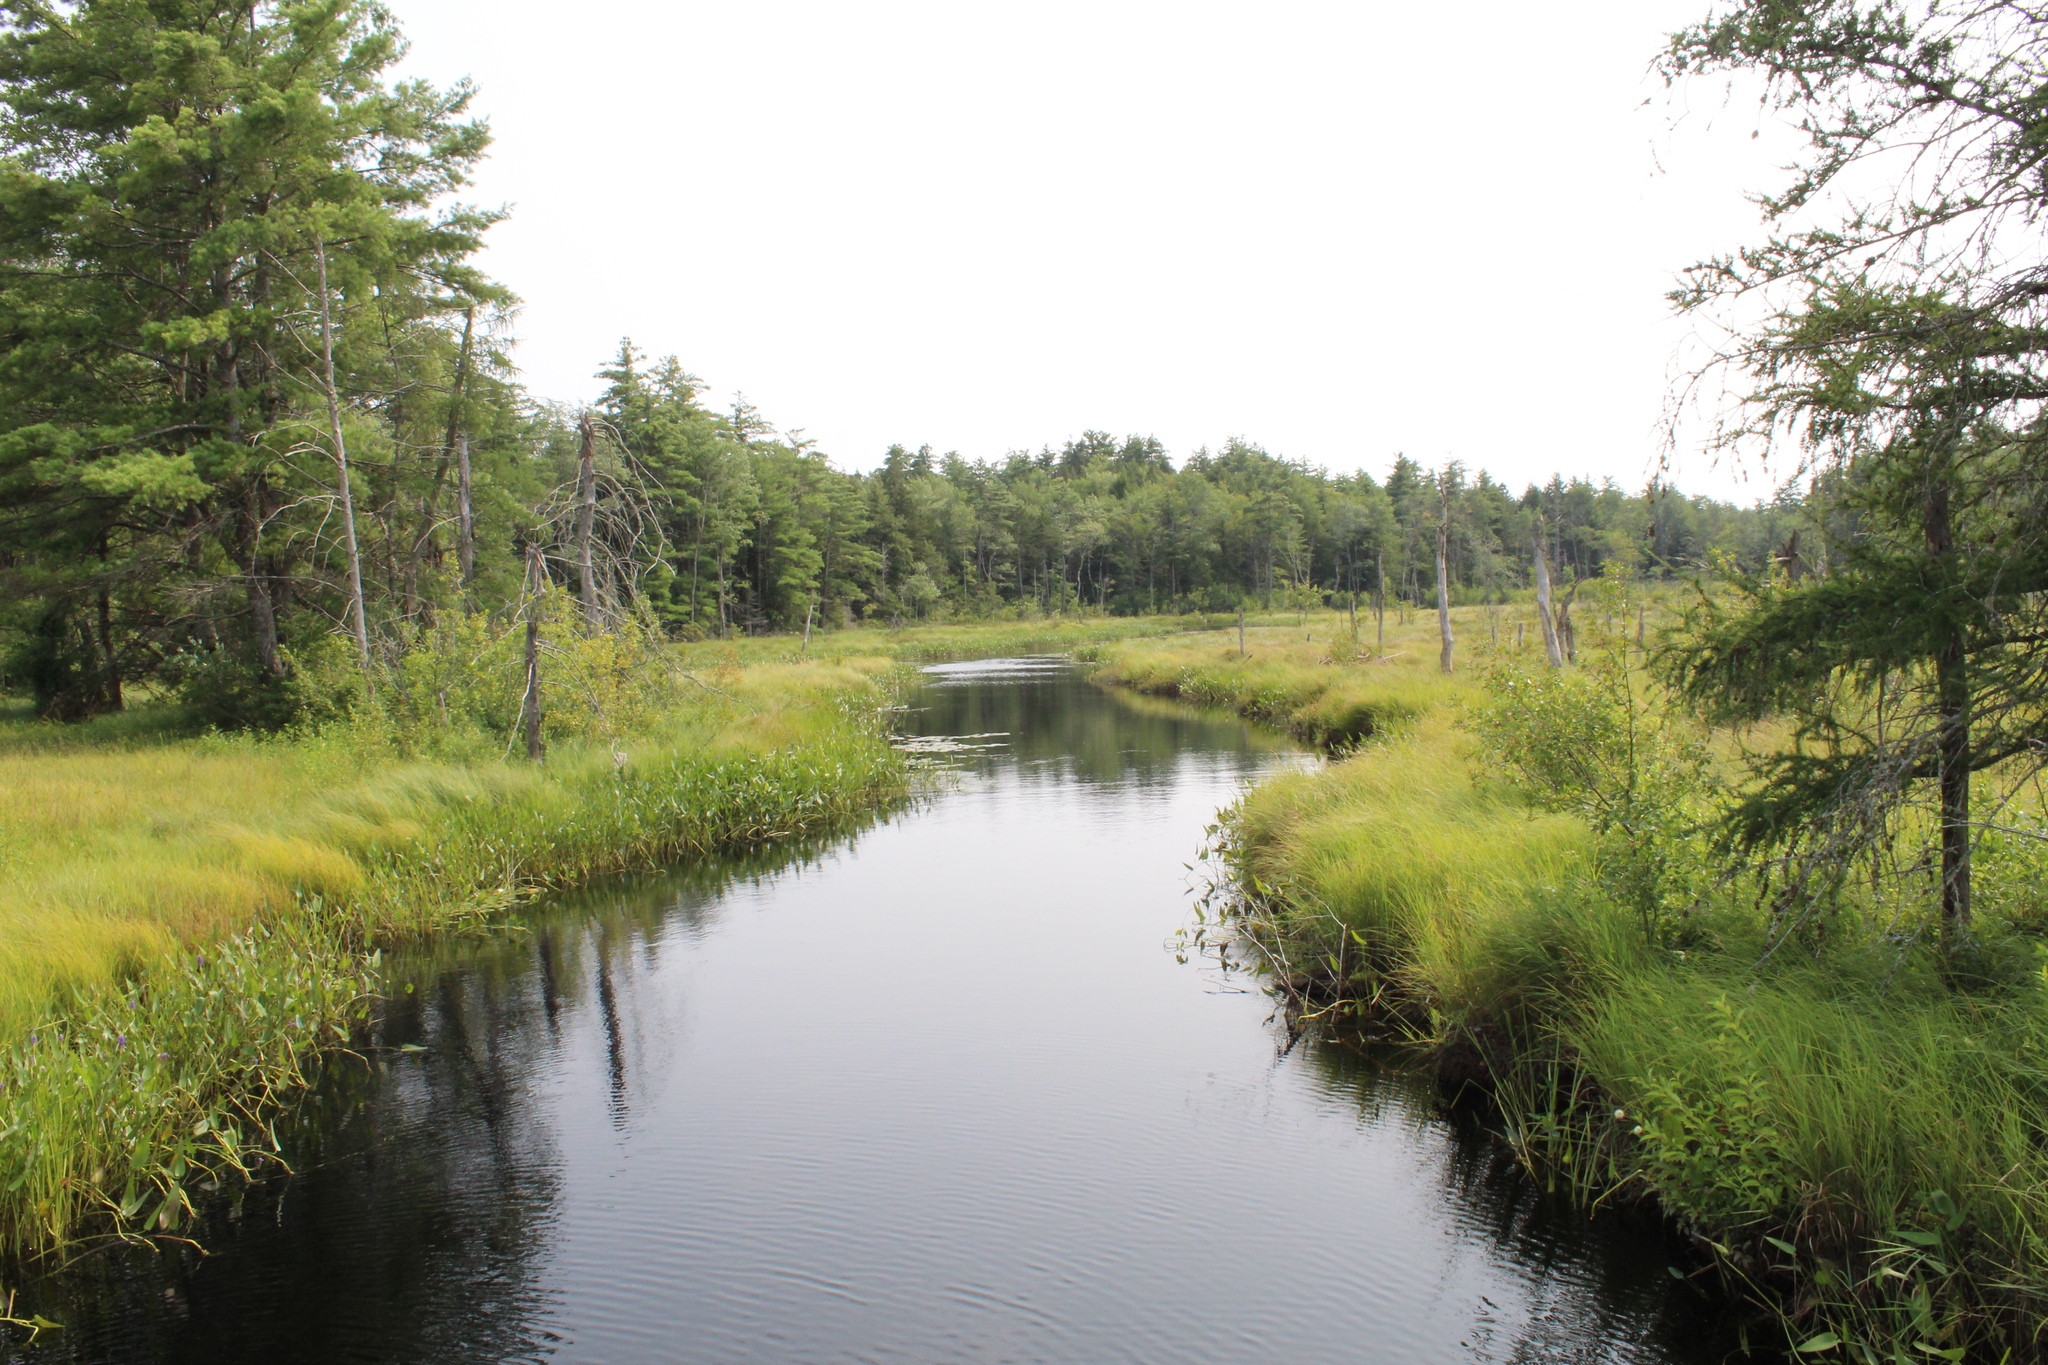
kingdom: Plantae
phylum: Tracheophyta
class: Liliopsida
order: Commelinales
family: Pontederiaceae
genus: Pontederia
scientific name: Pontederia cordata
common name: Pickerelweed
